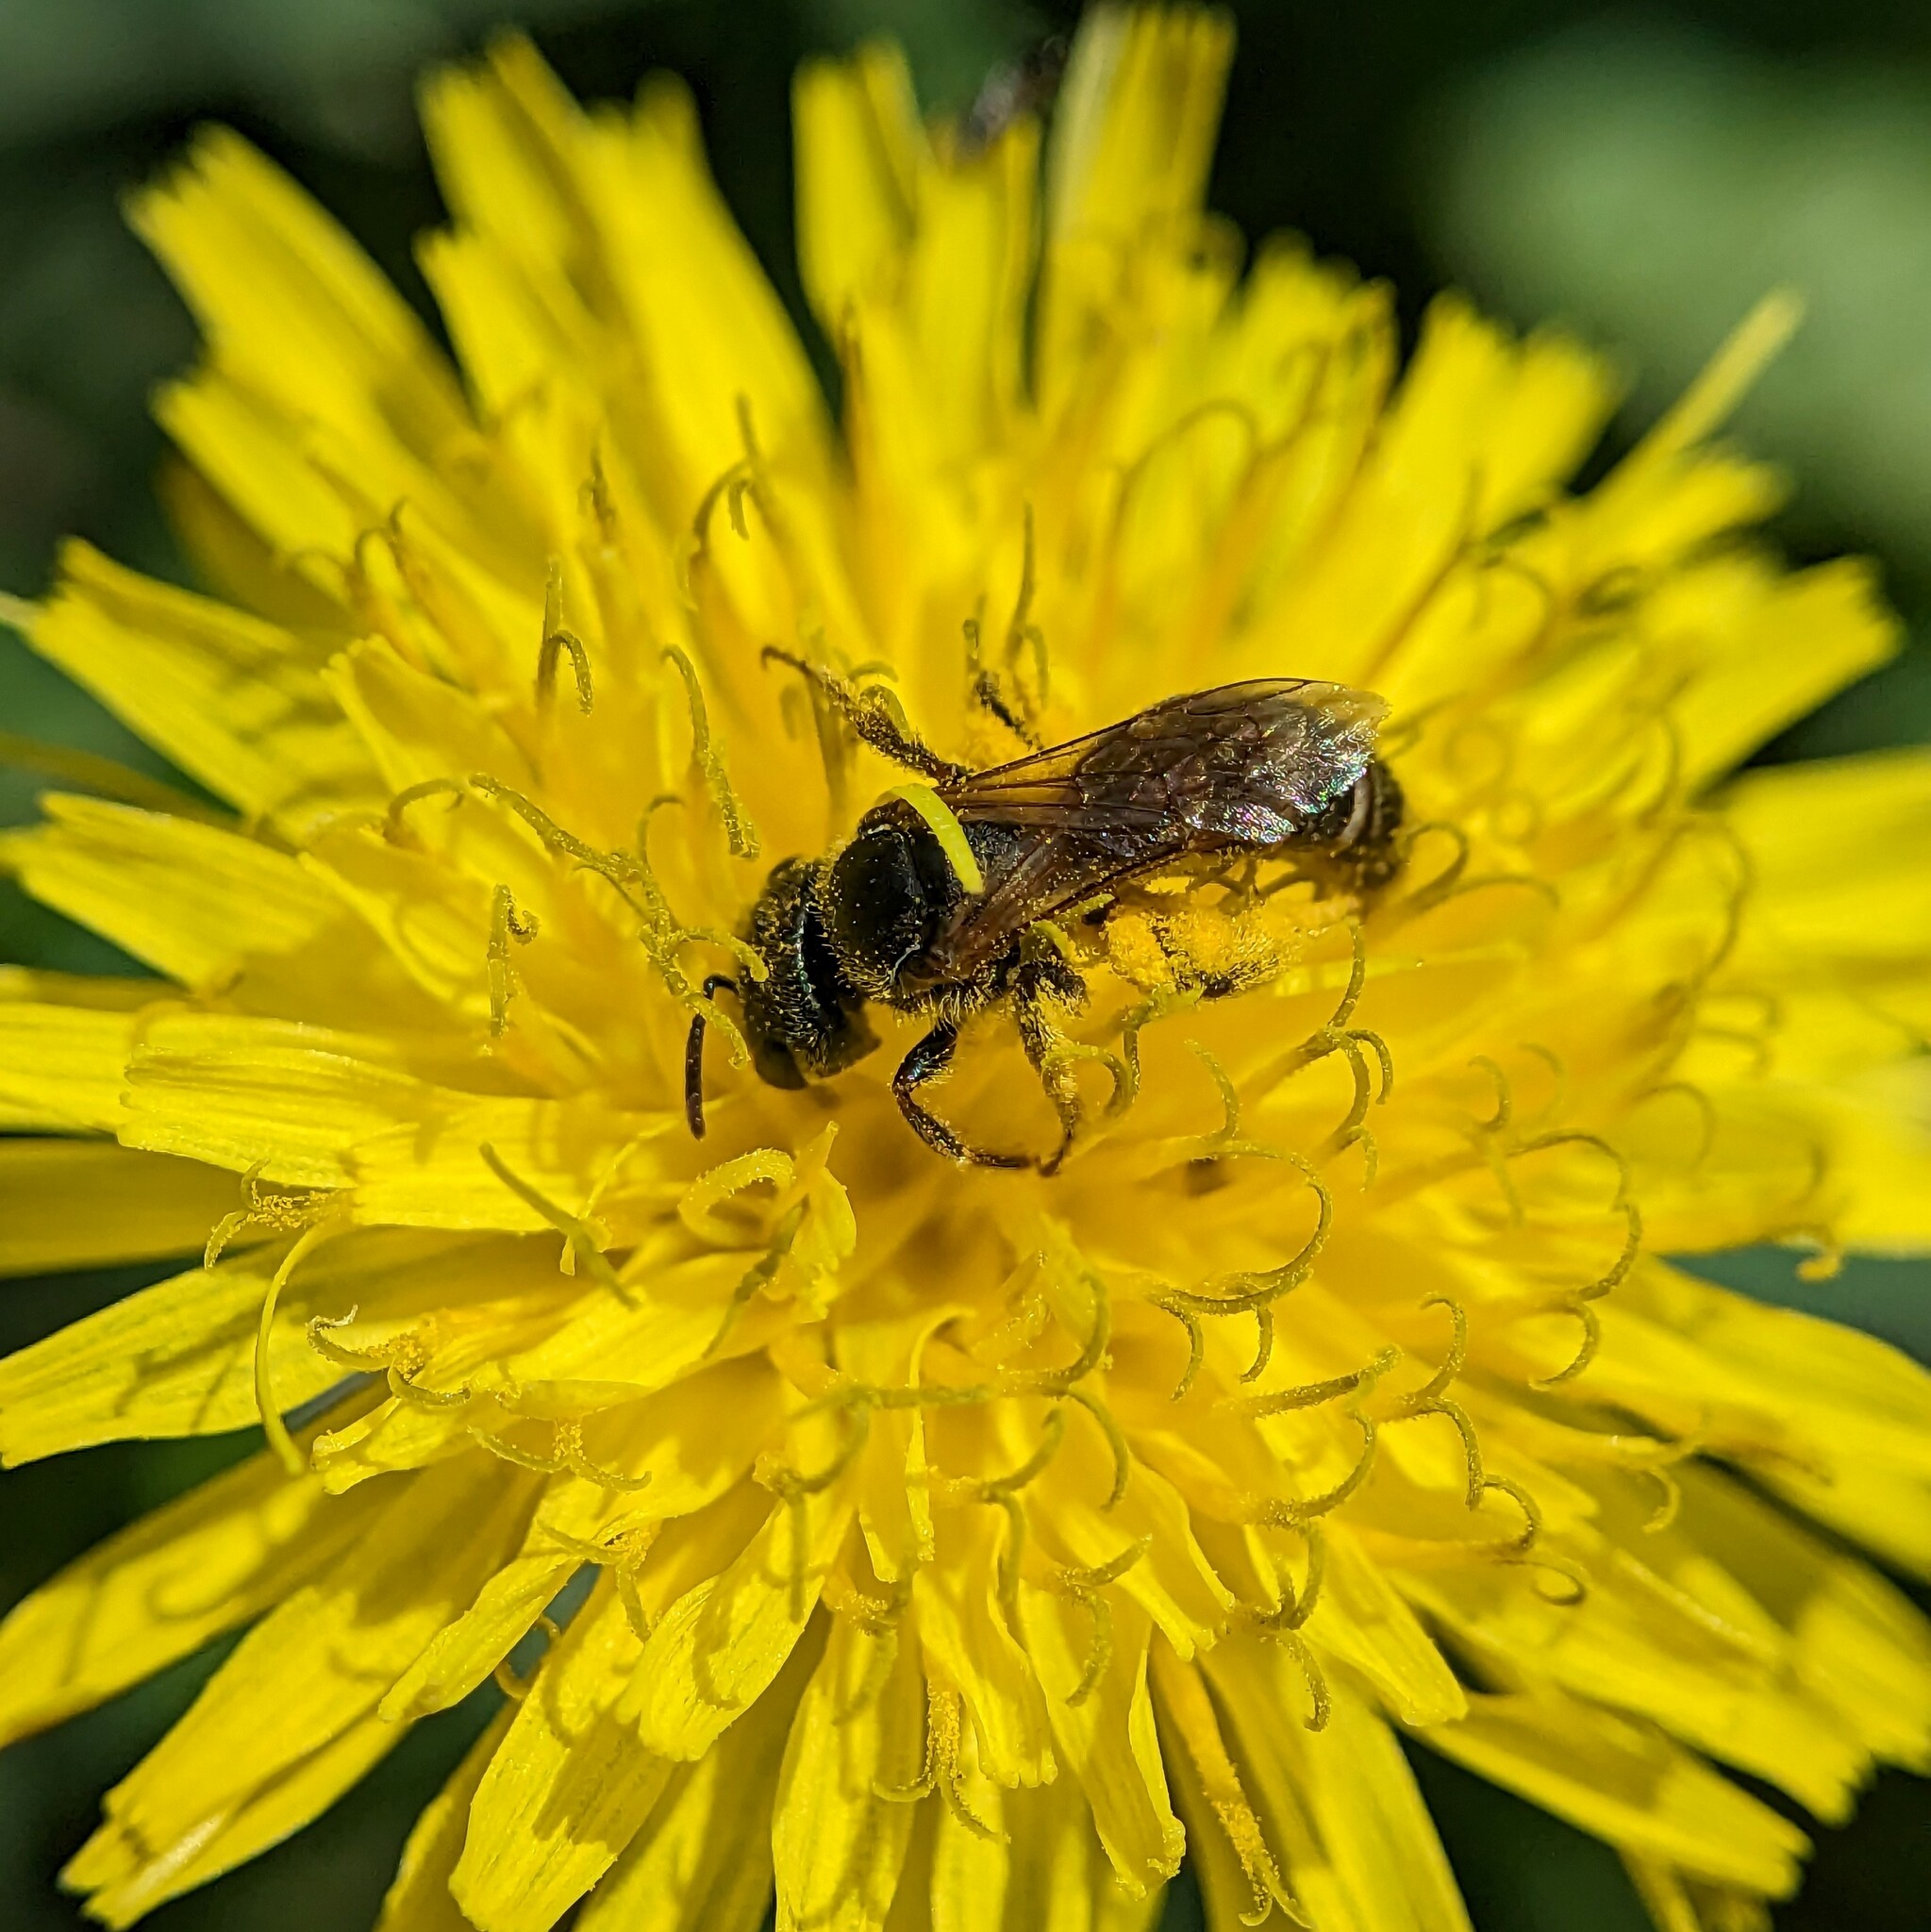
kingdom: Animalia
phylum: Arthropoda
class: Insecta
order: Hymenoptera
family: Halictidae
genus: Halictus
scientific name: Halictus ligatus
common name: Ligated furrow bee
